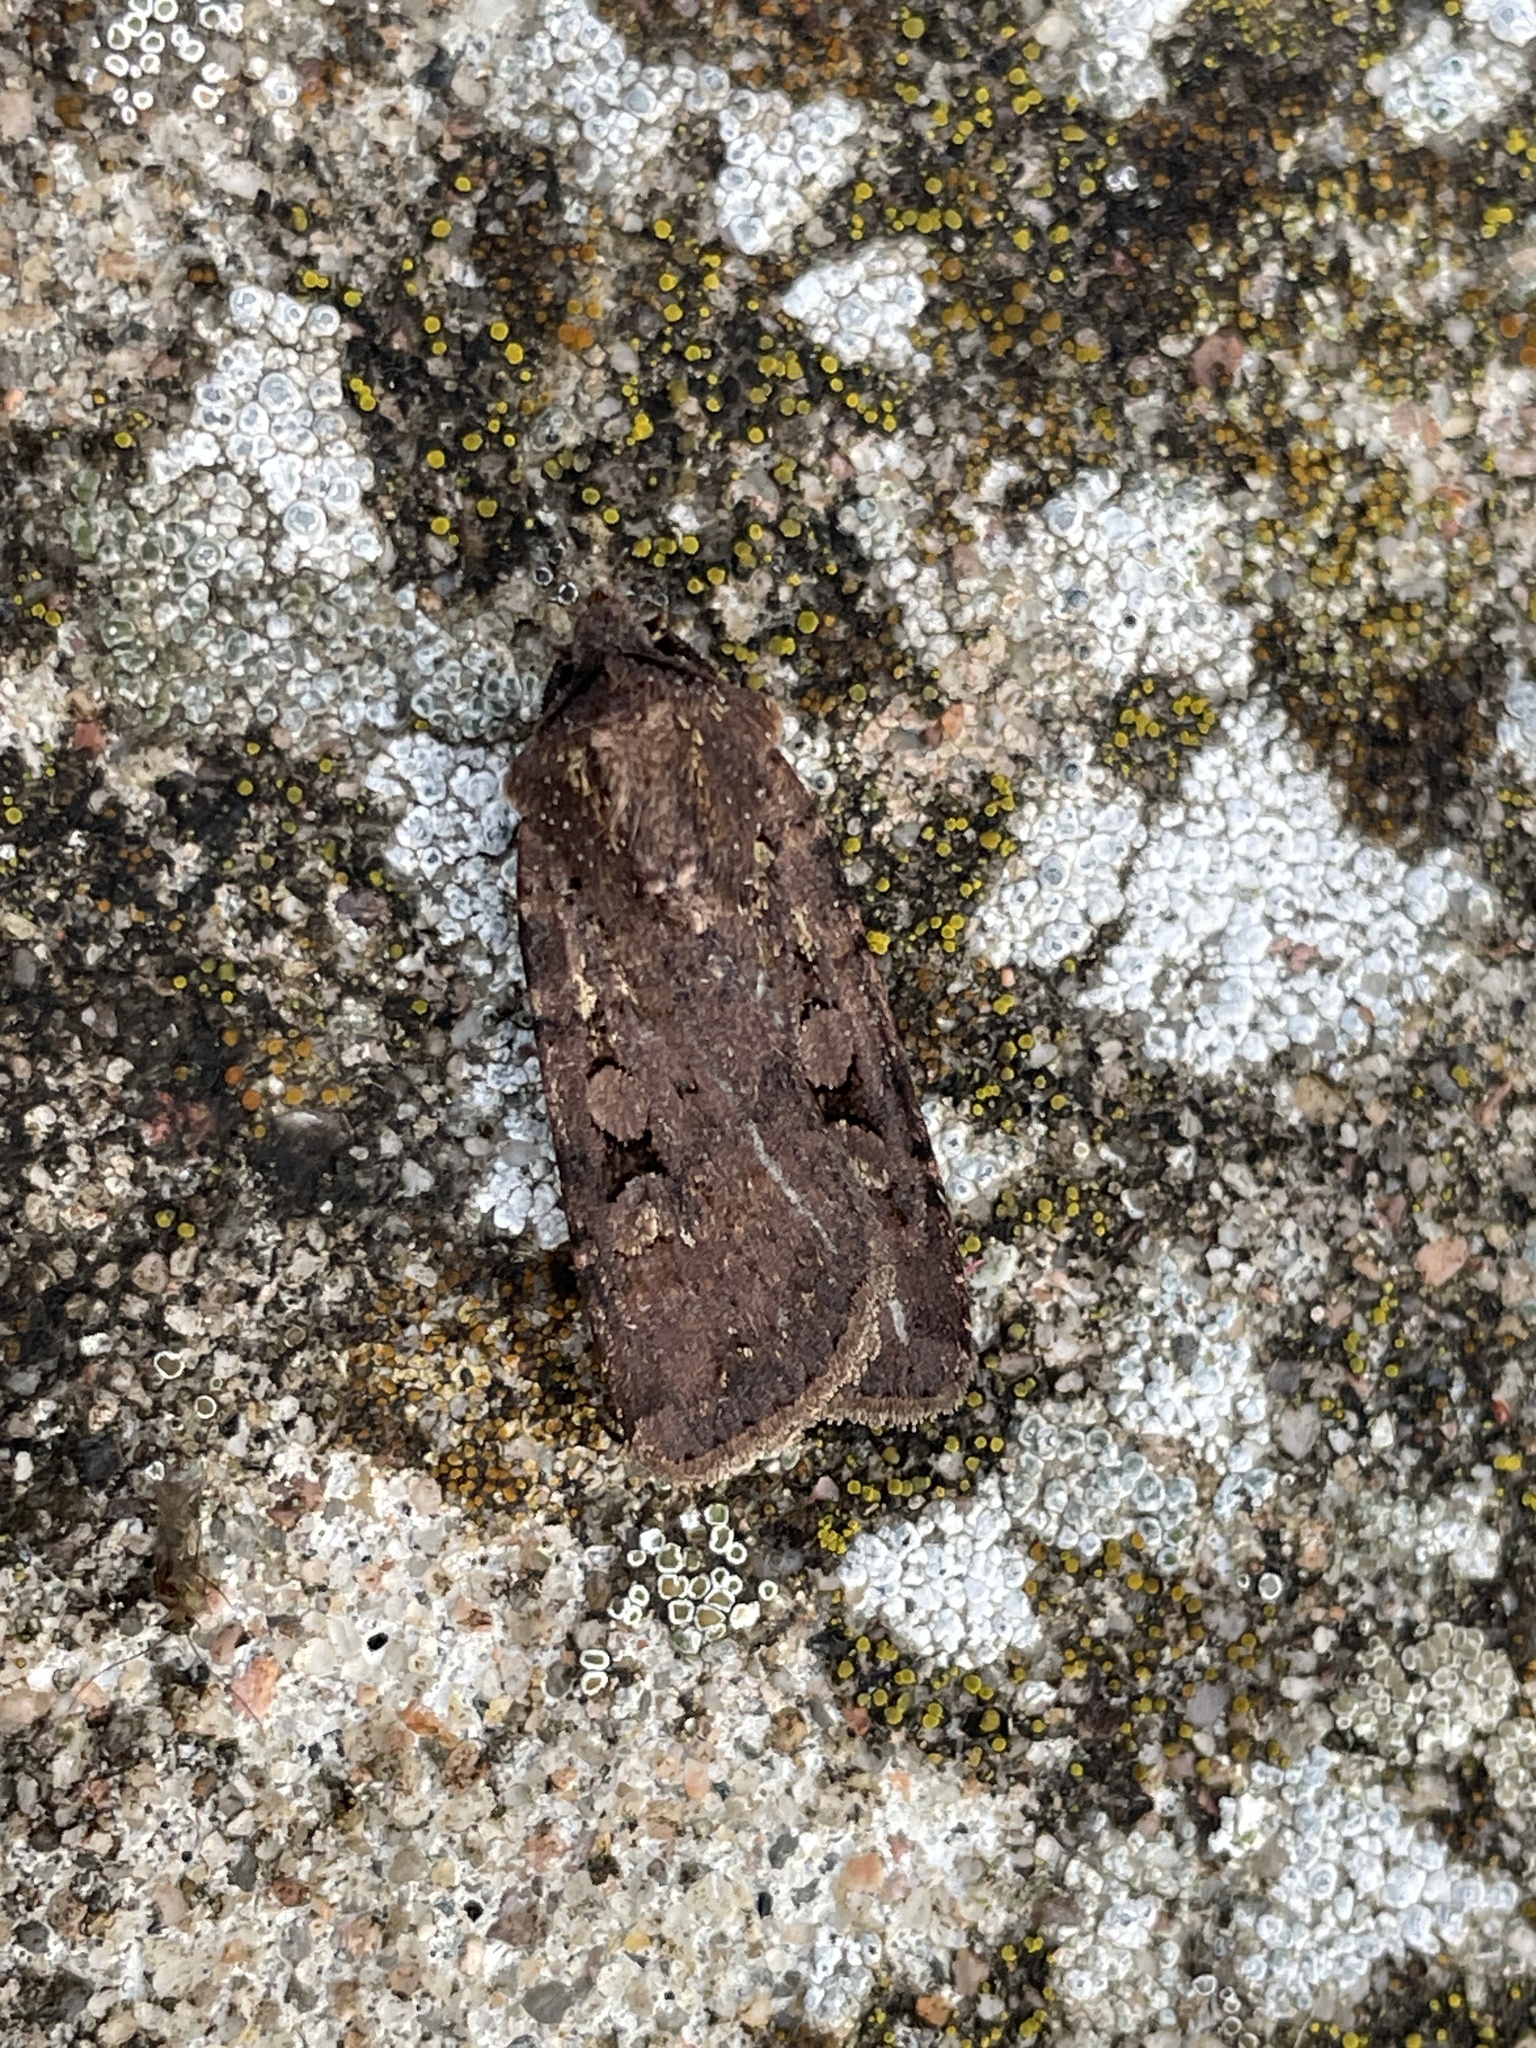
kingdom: Animalia
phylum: Arthropoda
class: Insecta
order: Lepidoptera
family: Noctuidae
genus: Euxoa
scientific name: Euxoa nigricans
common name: Garden dart
